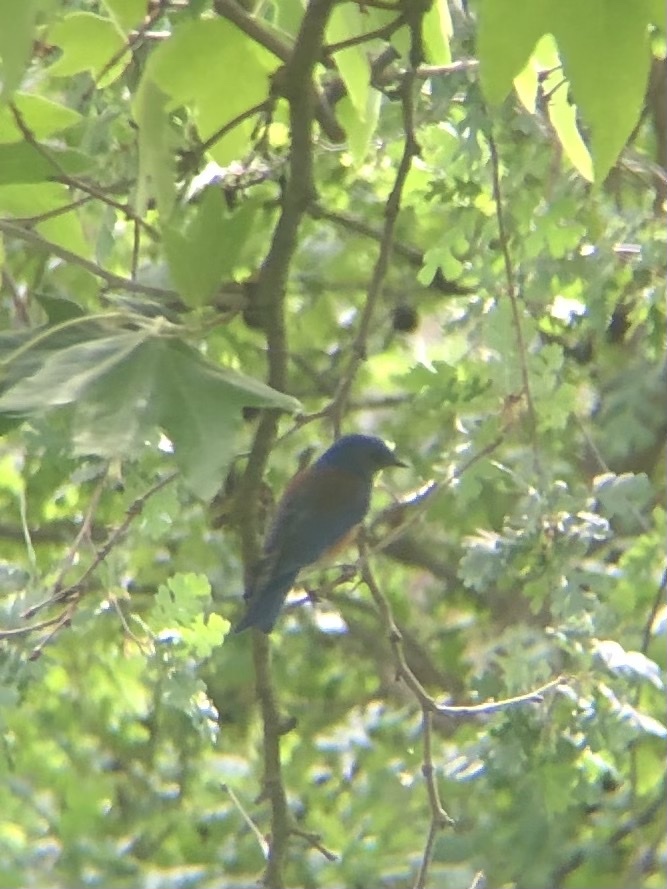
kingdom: Animalia
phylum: Chordata
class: Aves
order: Passeriformes
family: Turdidae
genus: Sialia
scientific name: Sialia mexicana
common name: Western bluebird
